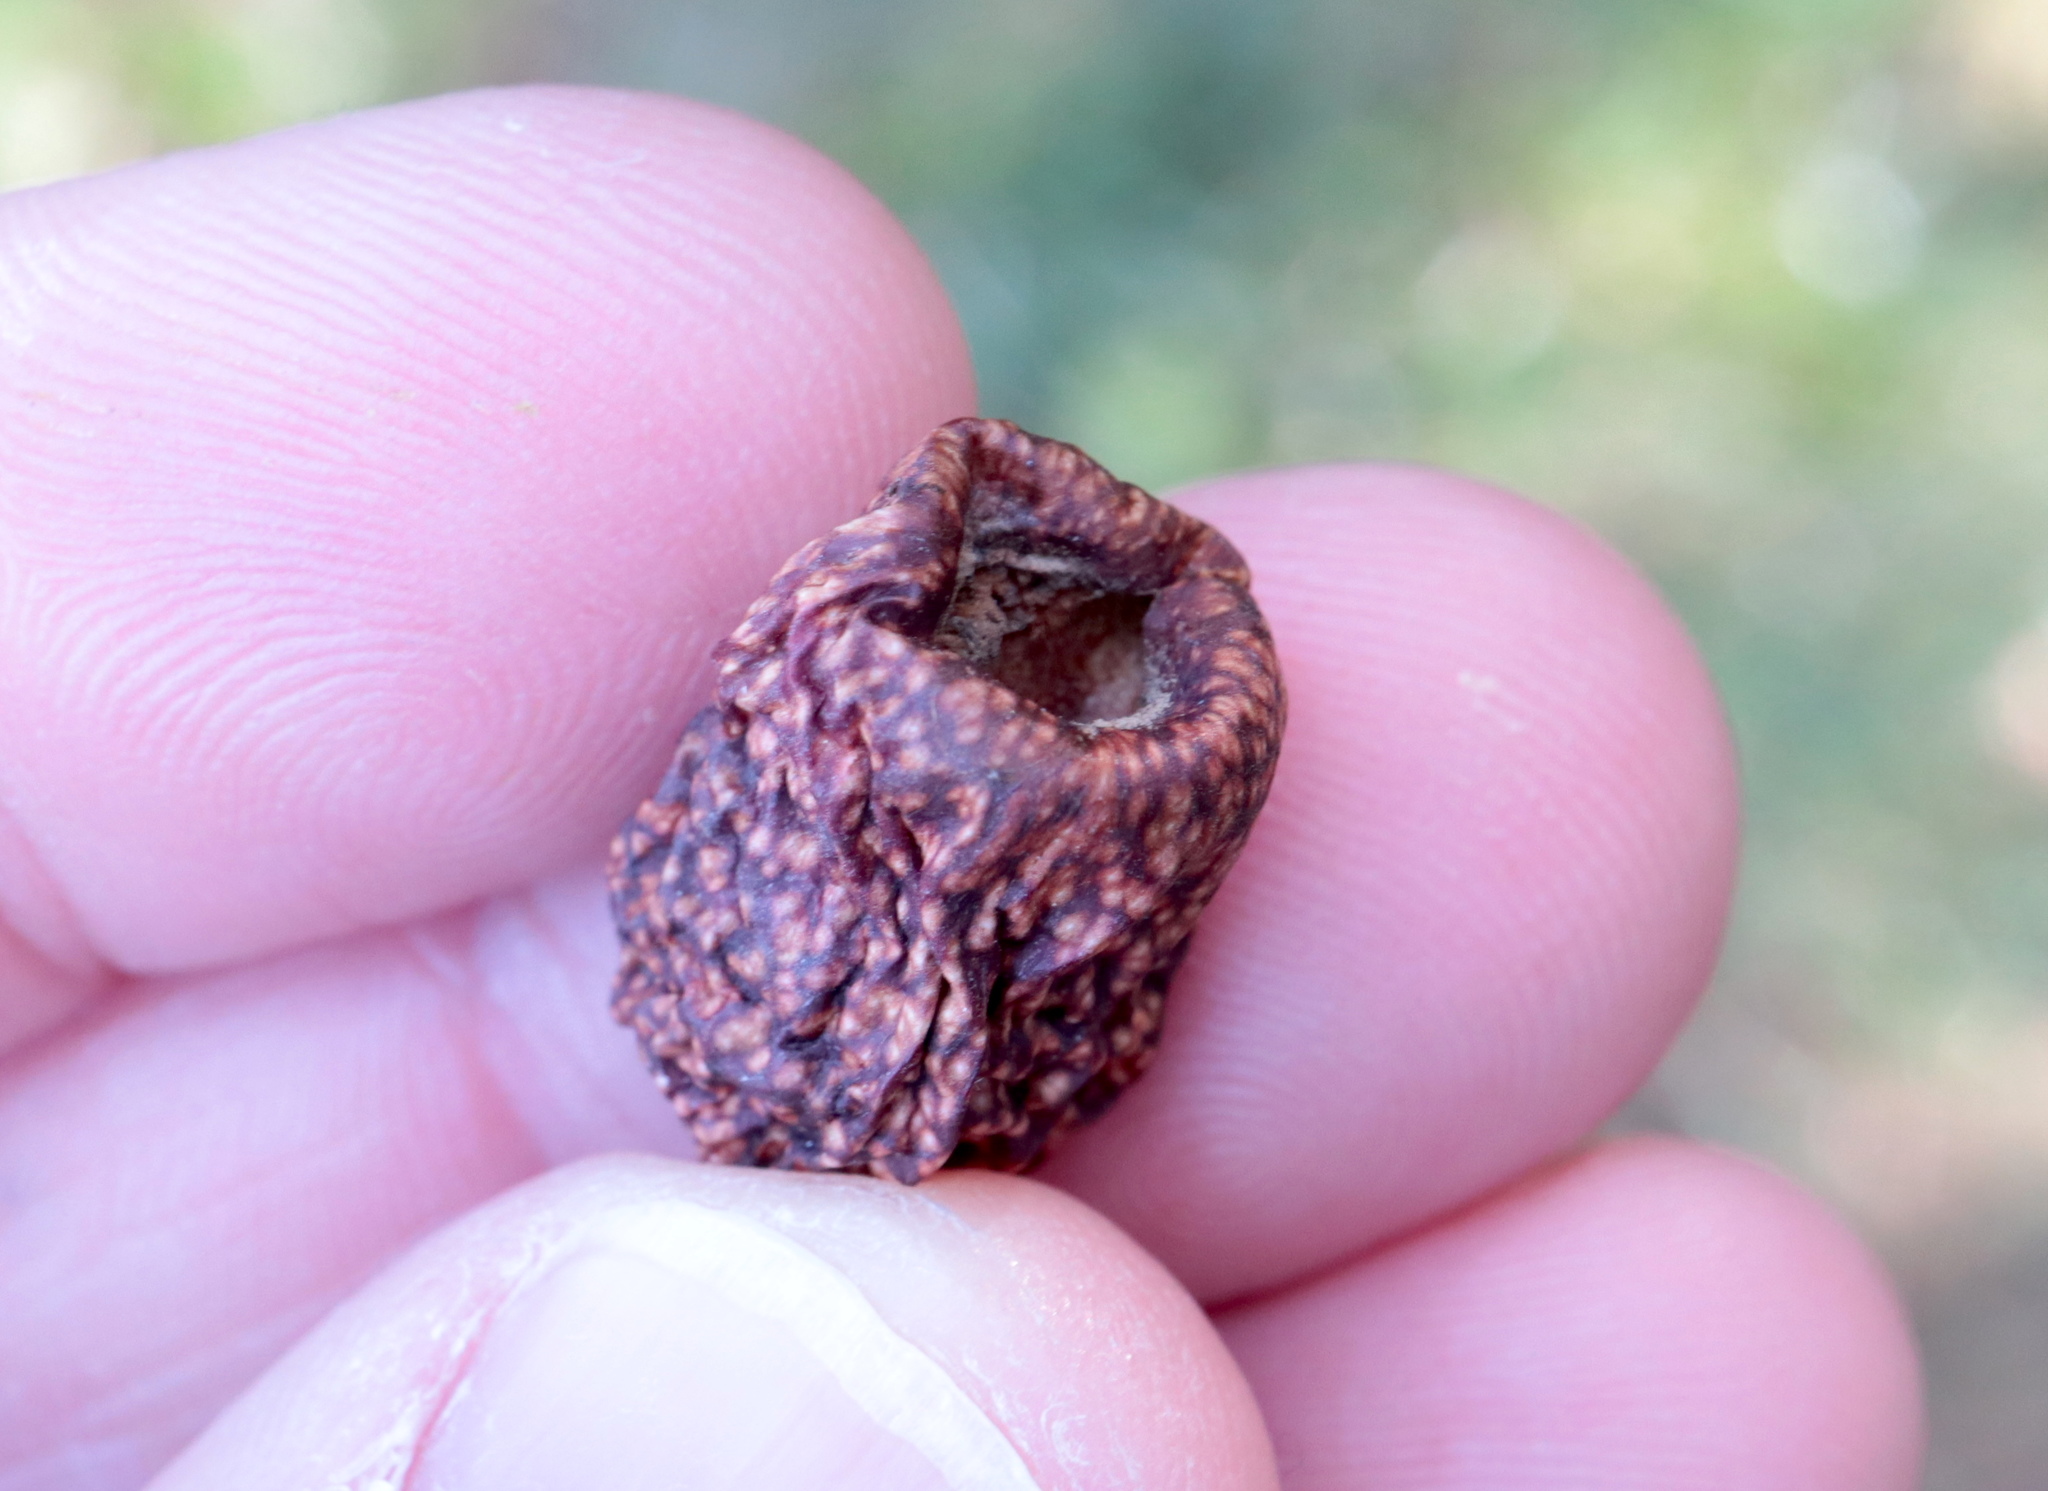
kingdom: Animalia
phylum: Arthropoda
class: Insecta
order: Hymenoptera
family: Cynipidae
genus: Amphibolips
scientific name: Amphibolips
